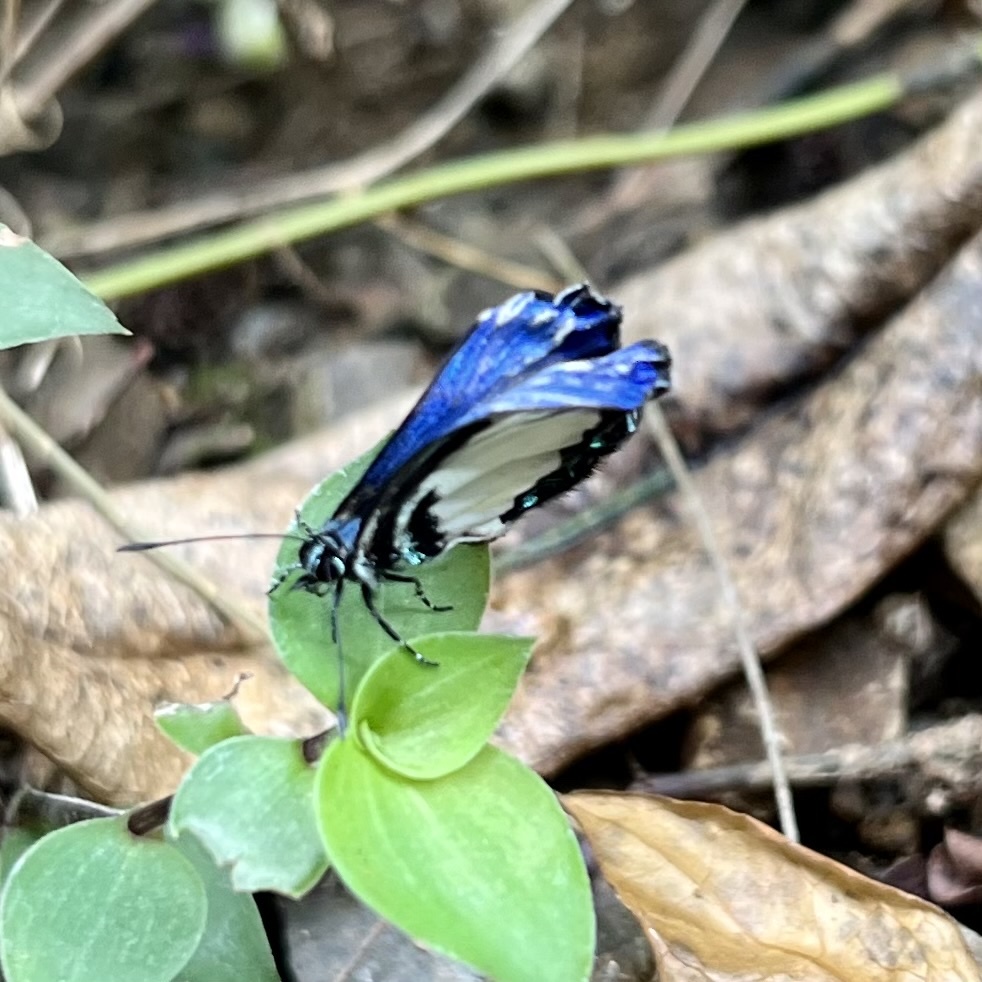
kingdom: Animalia
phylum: Arthropoda
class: Insecta
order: Lepidoptera
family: Lycaenidae
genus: Psychonotis
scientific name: Psychonotis caelius
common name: Small green banded blue
